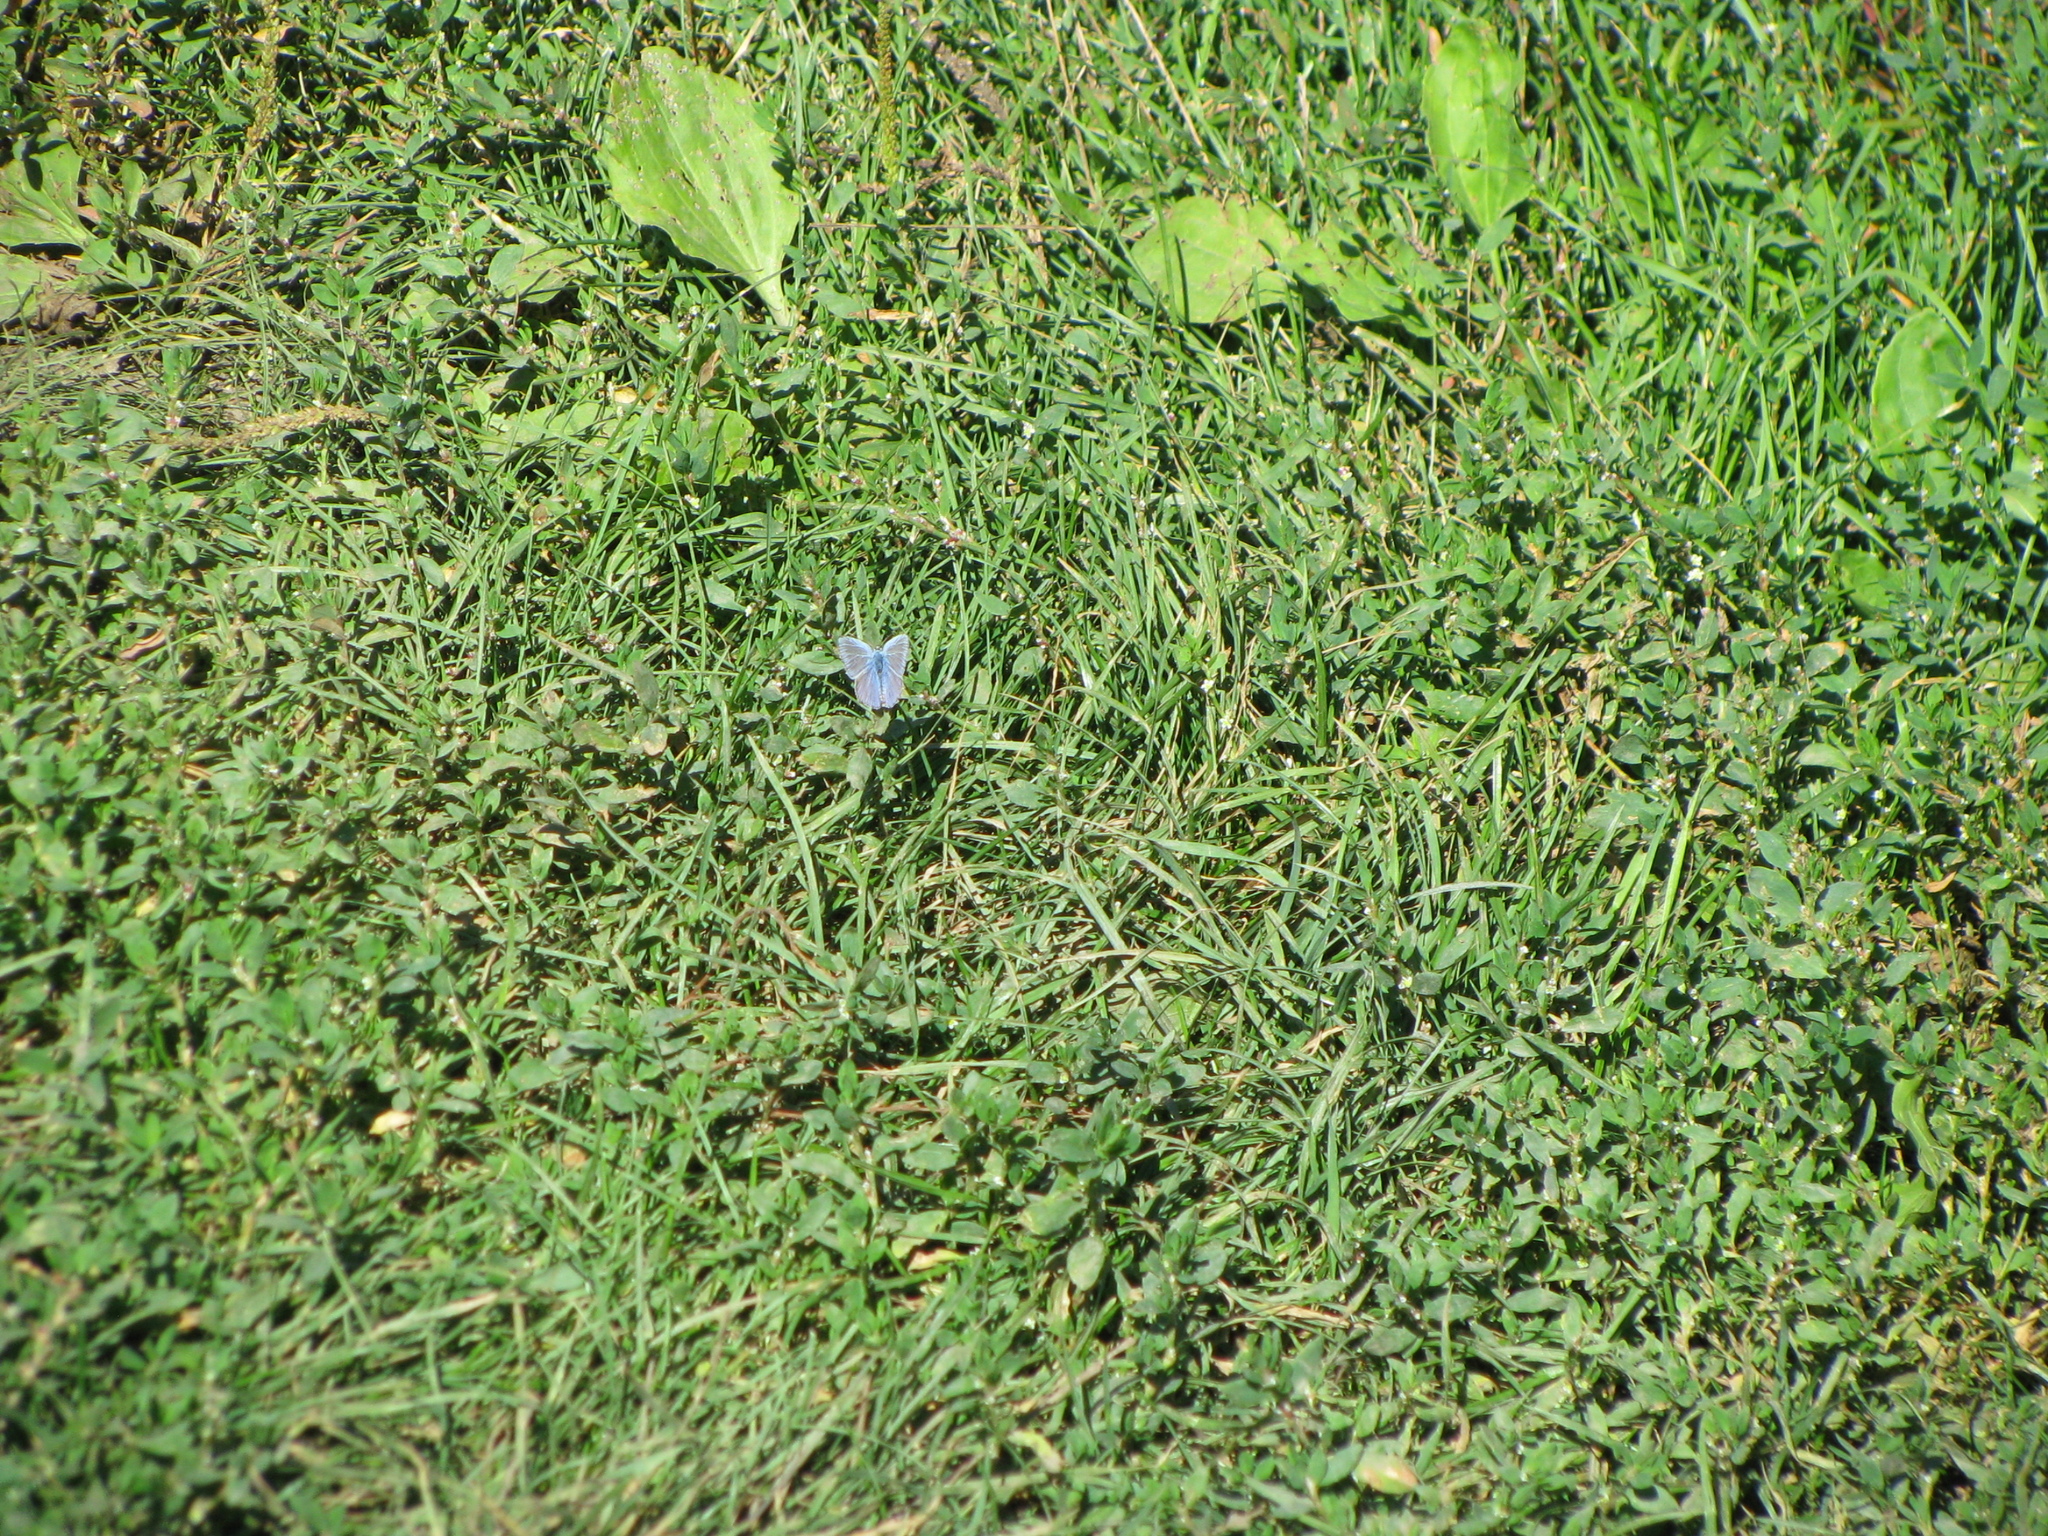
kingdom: Animalia
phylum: Arthropoda
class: Insecta
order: Lepidoptera
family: Lycaenidae
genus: Polyommatus
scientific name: Polyommatus icarus
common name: Common blue
